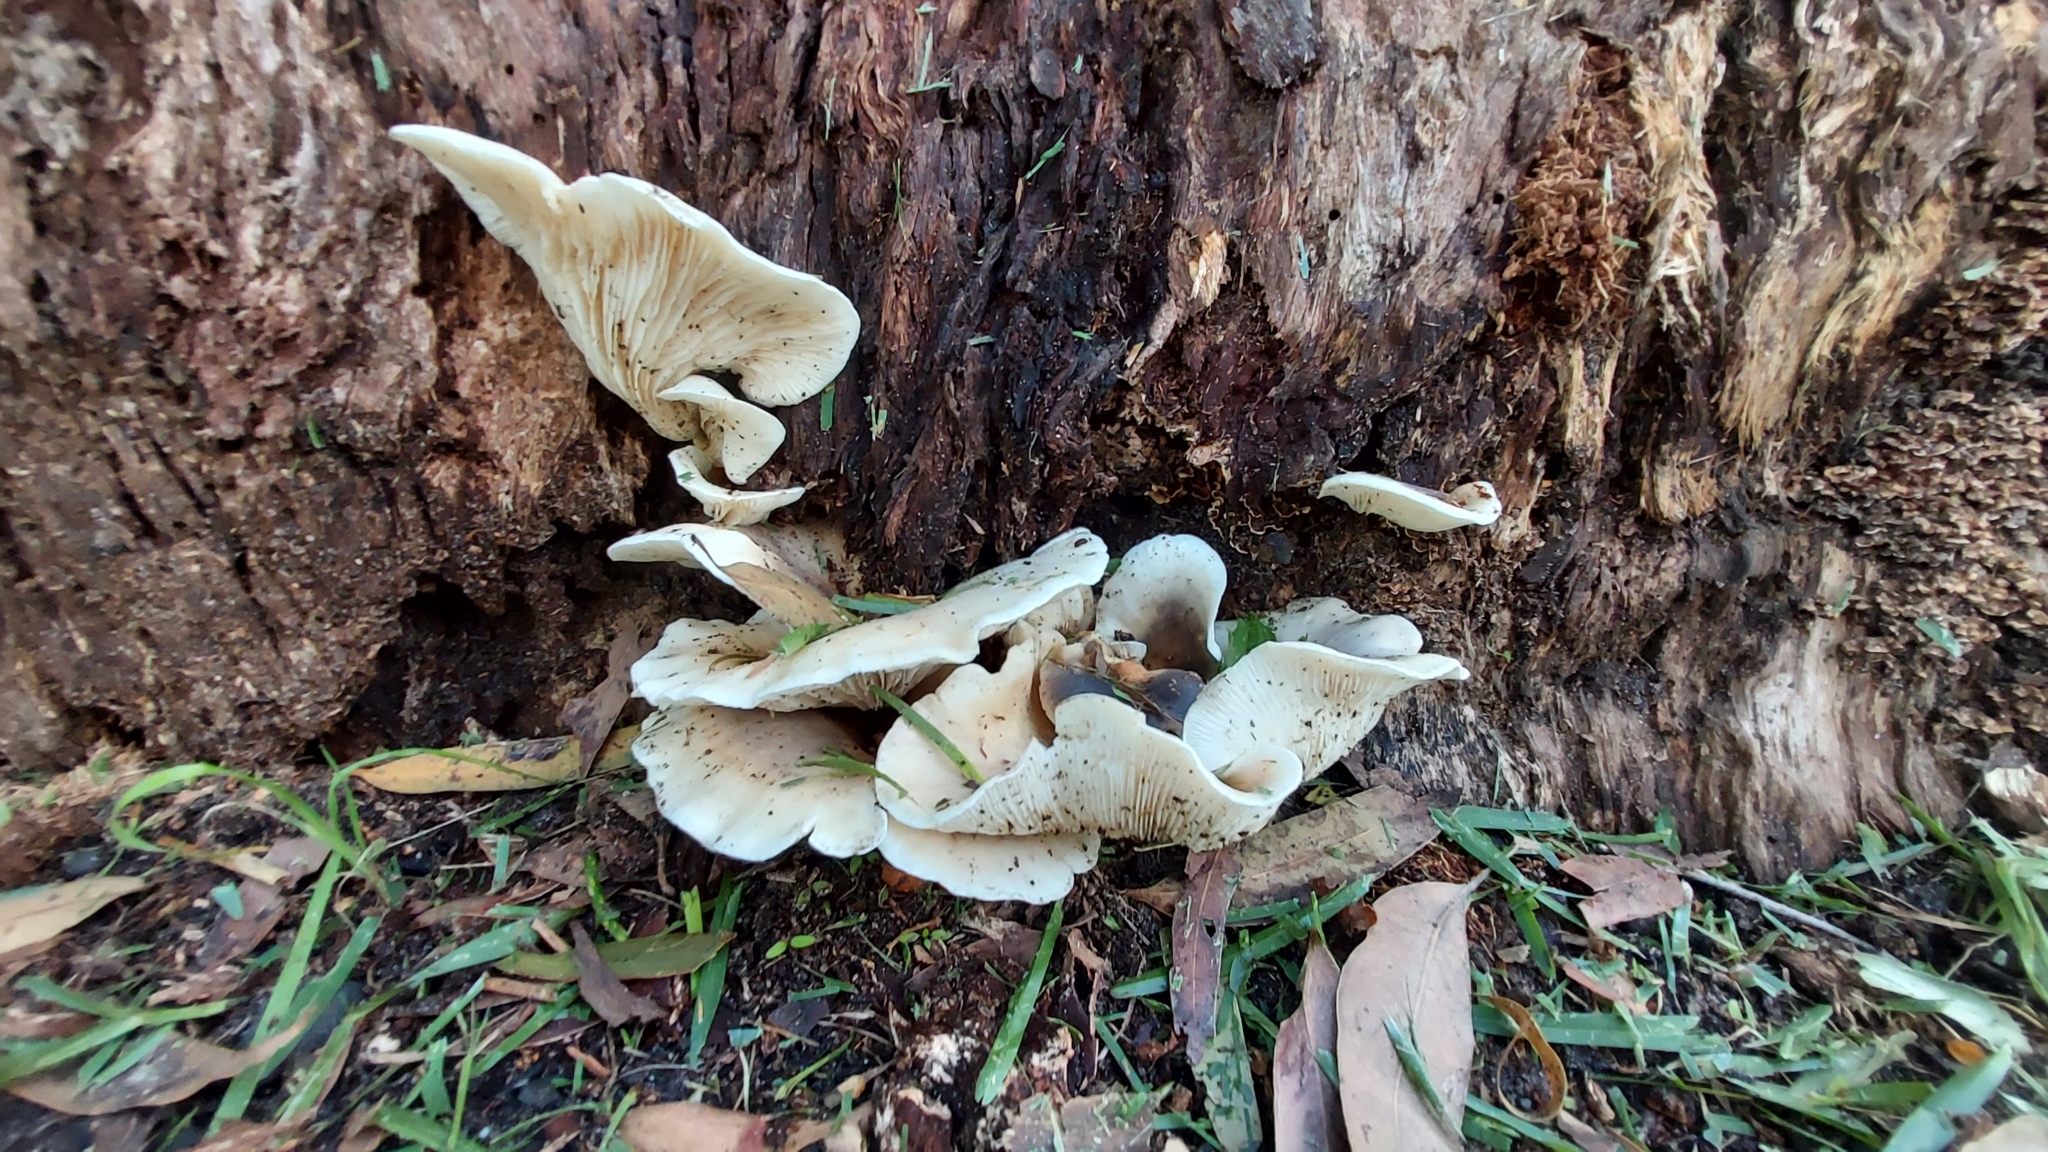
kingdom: Fungi
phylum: Basidiomycota
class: Agaricomycetes
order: Agaricales
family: Omphalotaceae
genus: Omphalotus
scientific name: Omphalotus nidiformis
